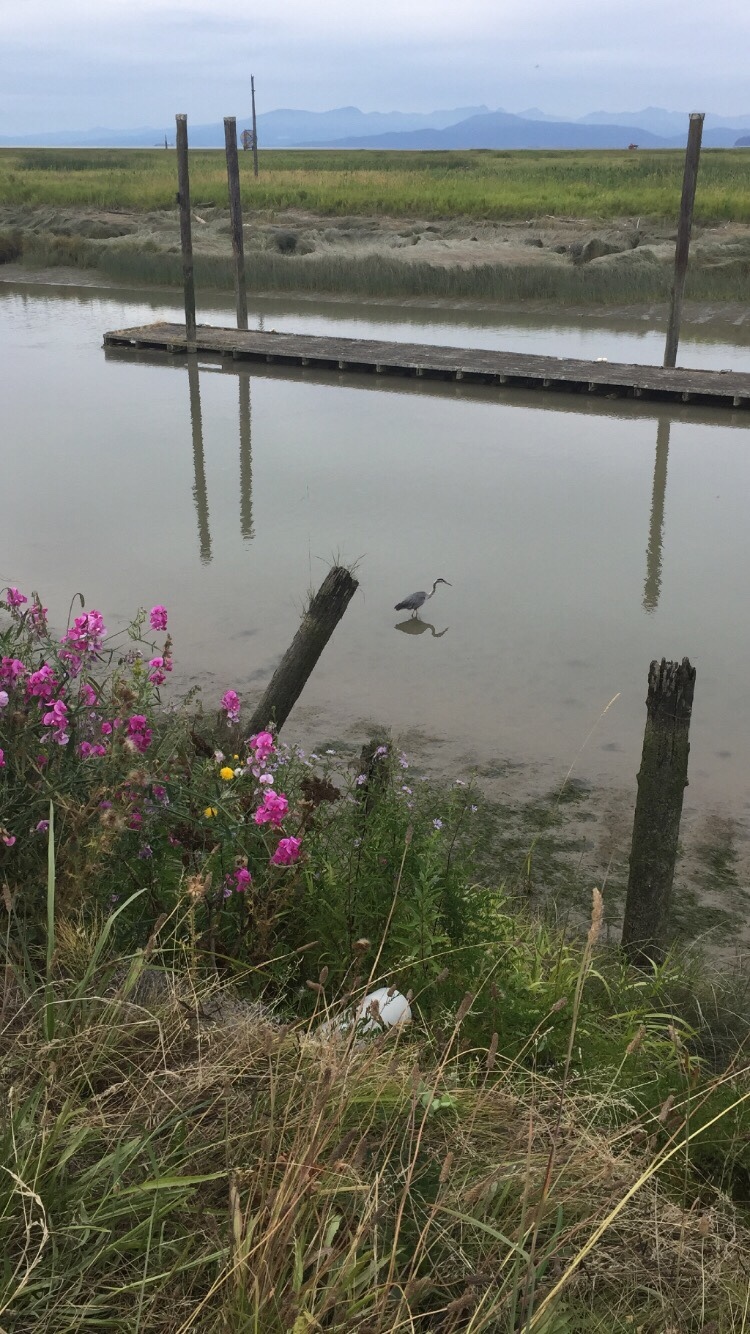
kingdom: Plantae
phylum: Tracheophyta
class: Magnoliopsida
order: Fabales
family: Fabaceae
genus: Lathyrus
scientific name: Lathyrus latifolius
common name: Perennial pea
